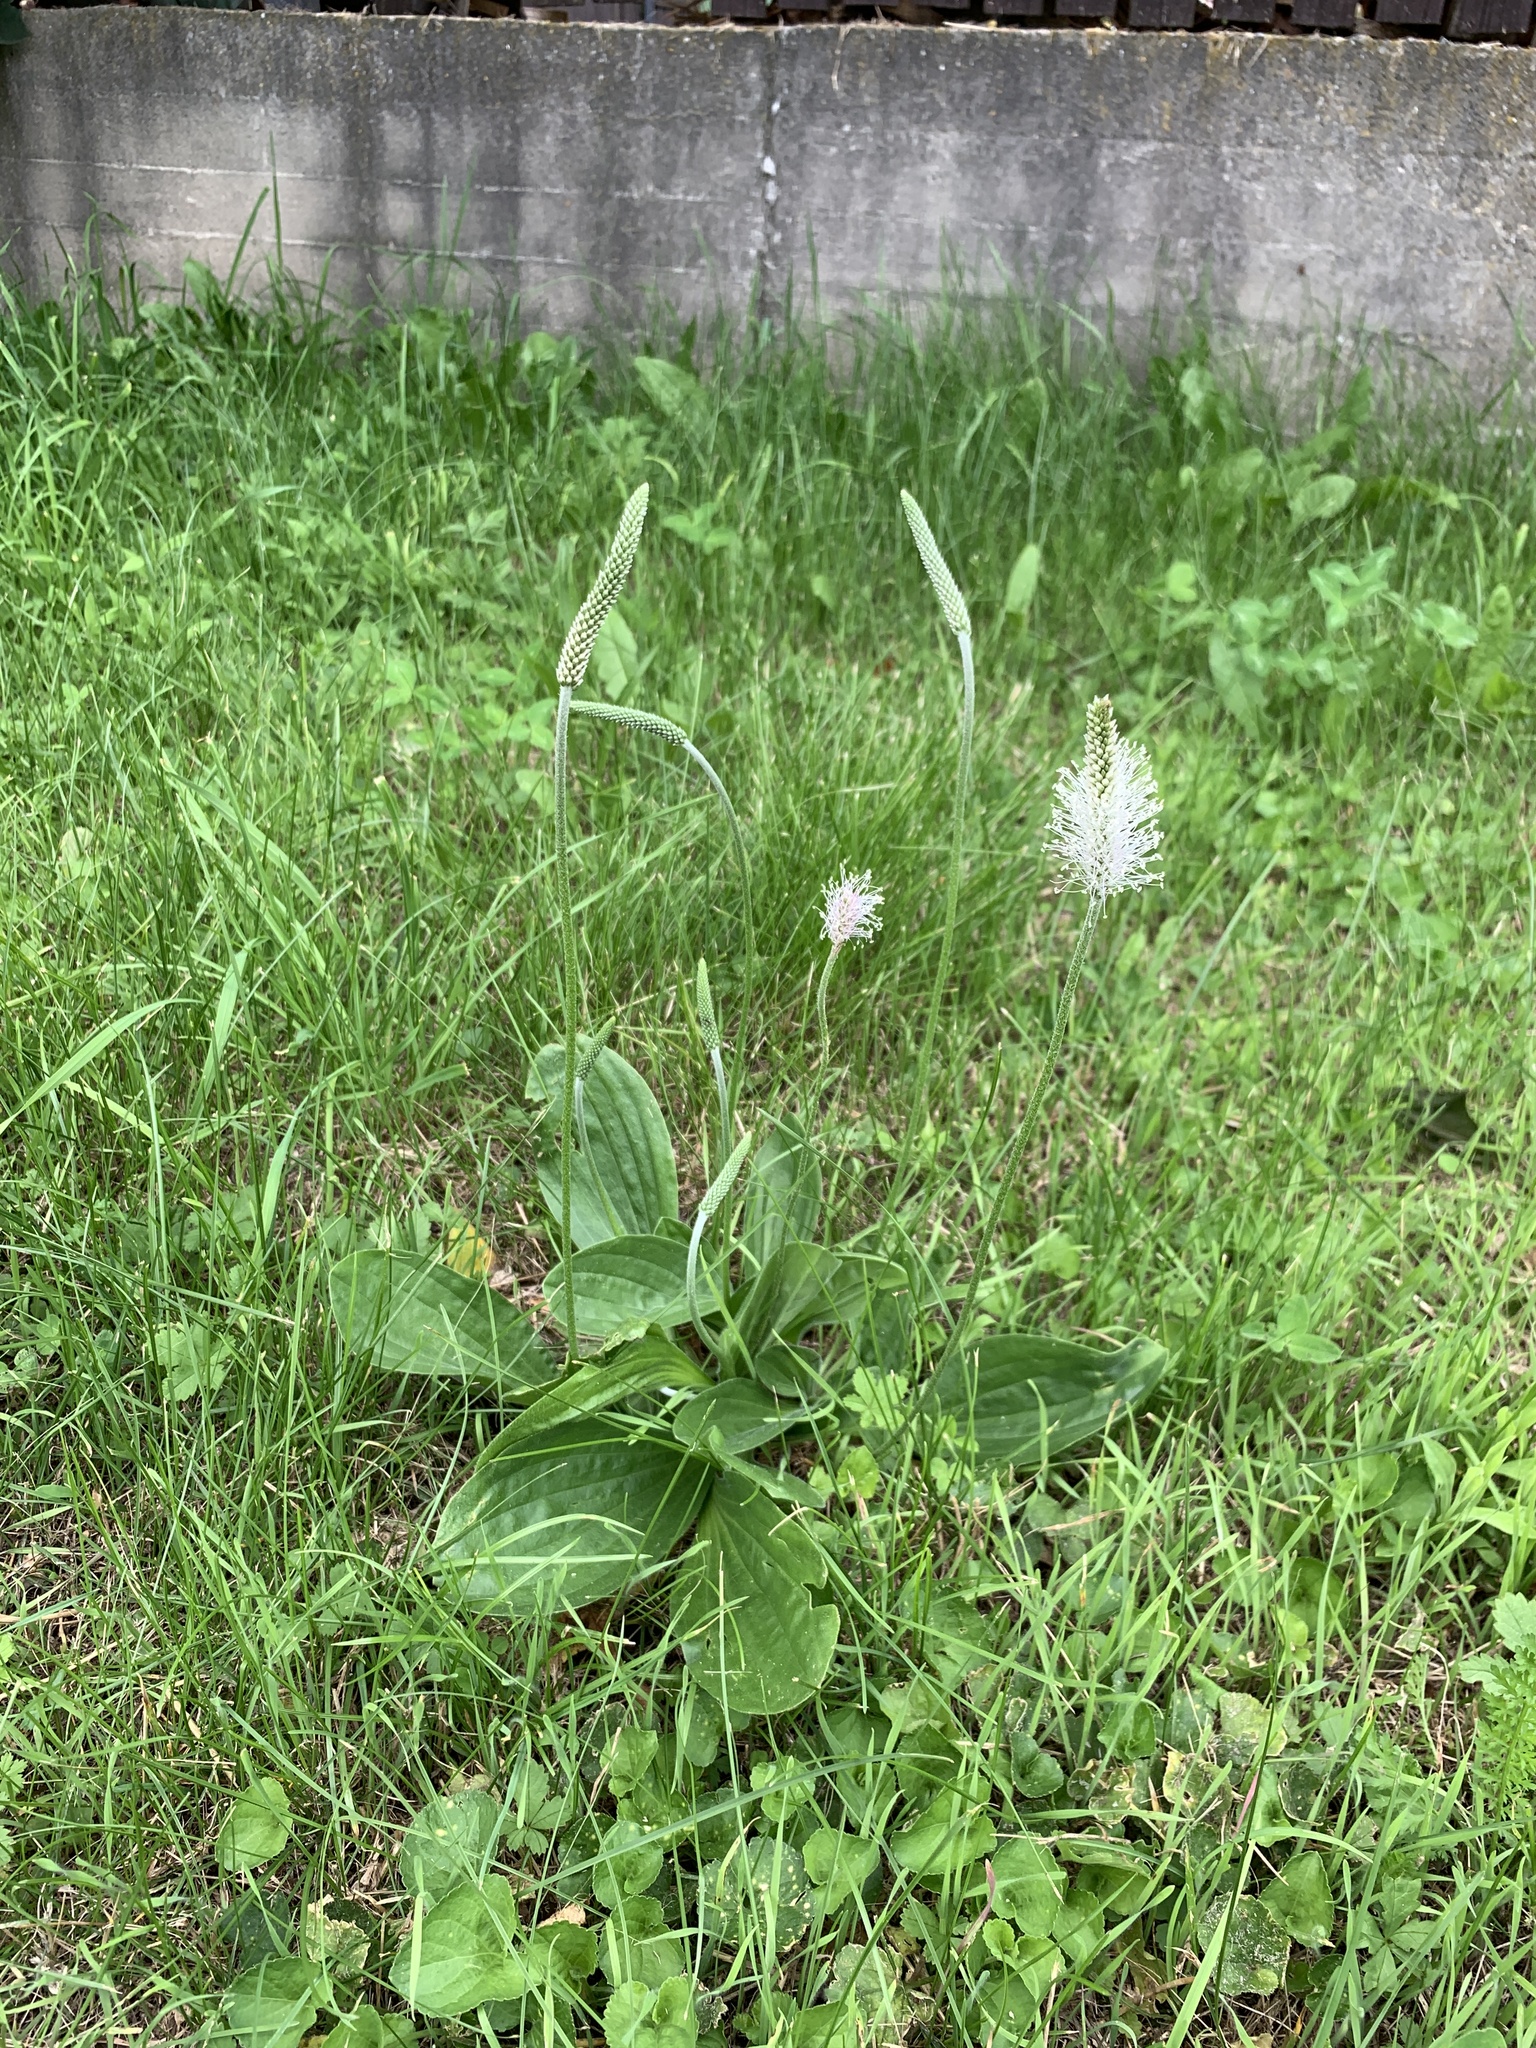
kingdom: Plantae
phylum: Tracheophyta
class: Magnoliopsida
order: Lamiales
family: Plantaginaceae
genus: Plantago
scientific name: Plantago media
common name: Hoary plantain
